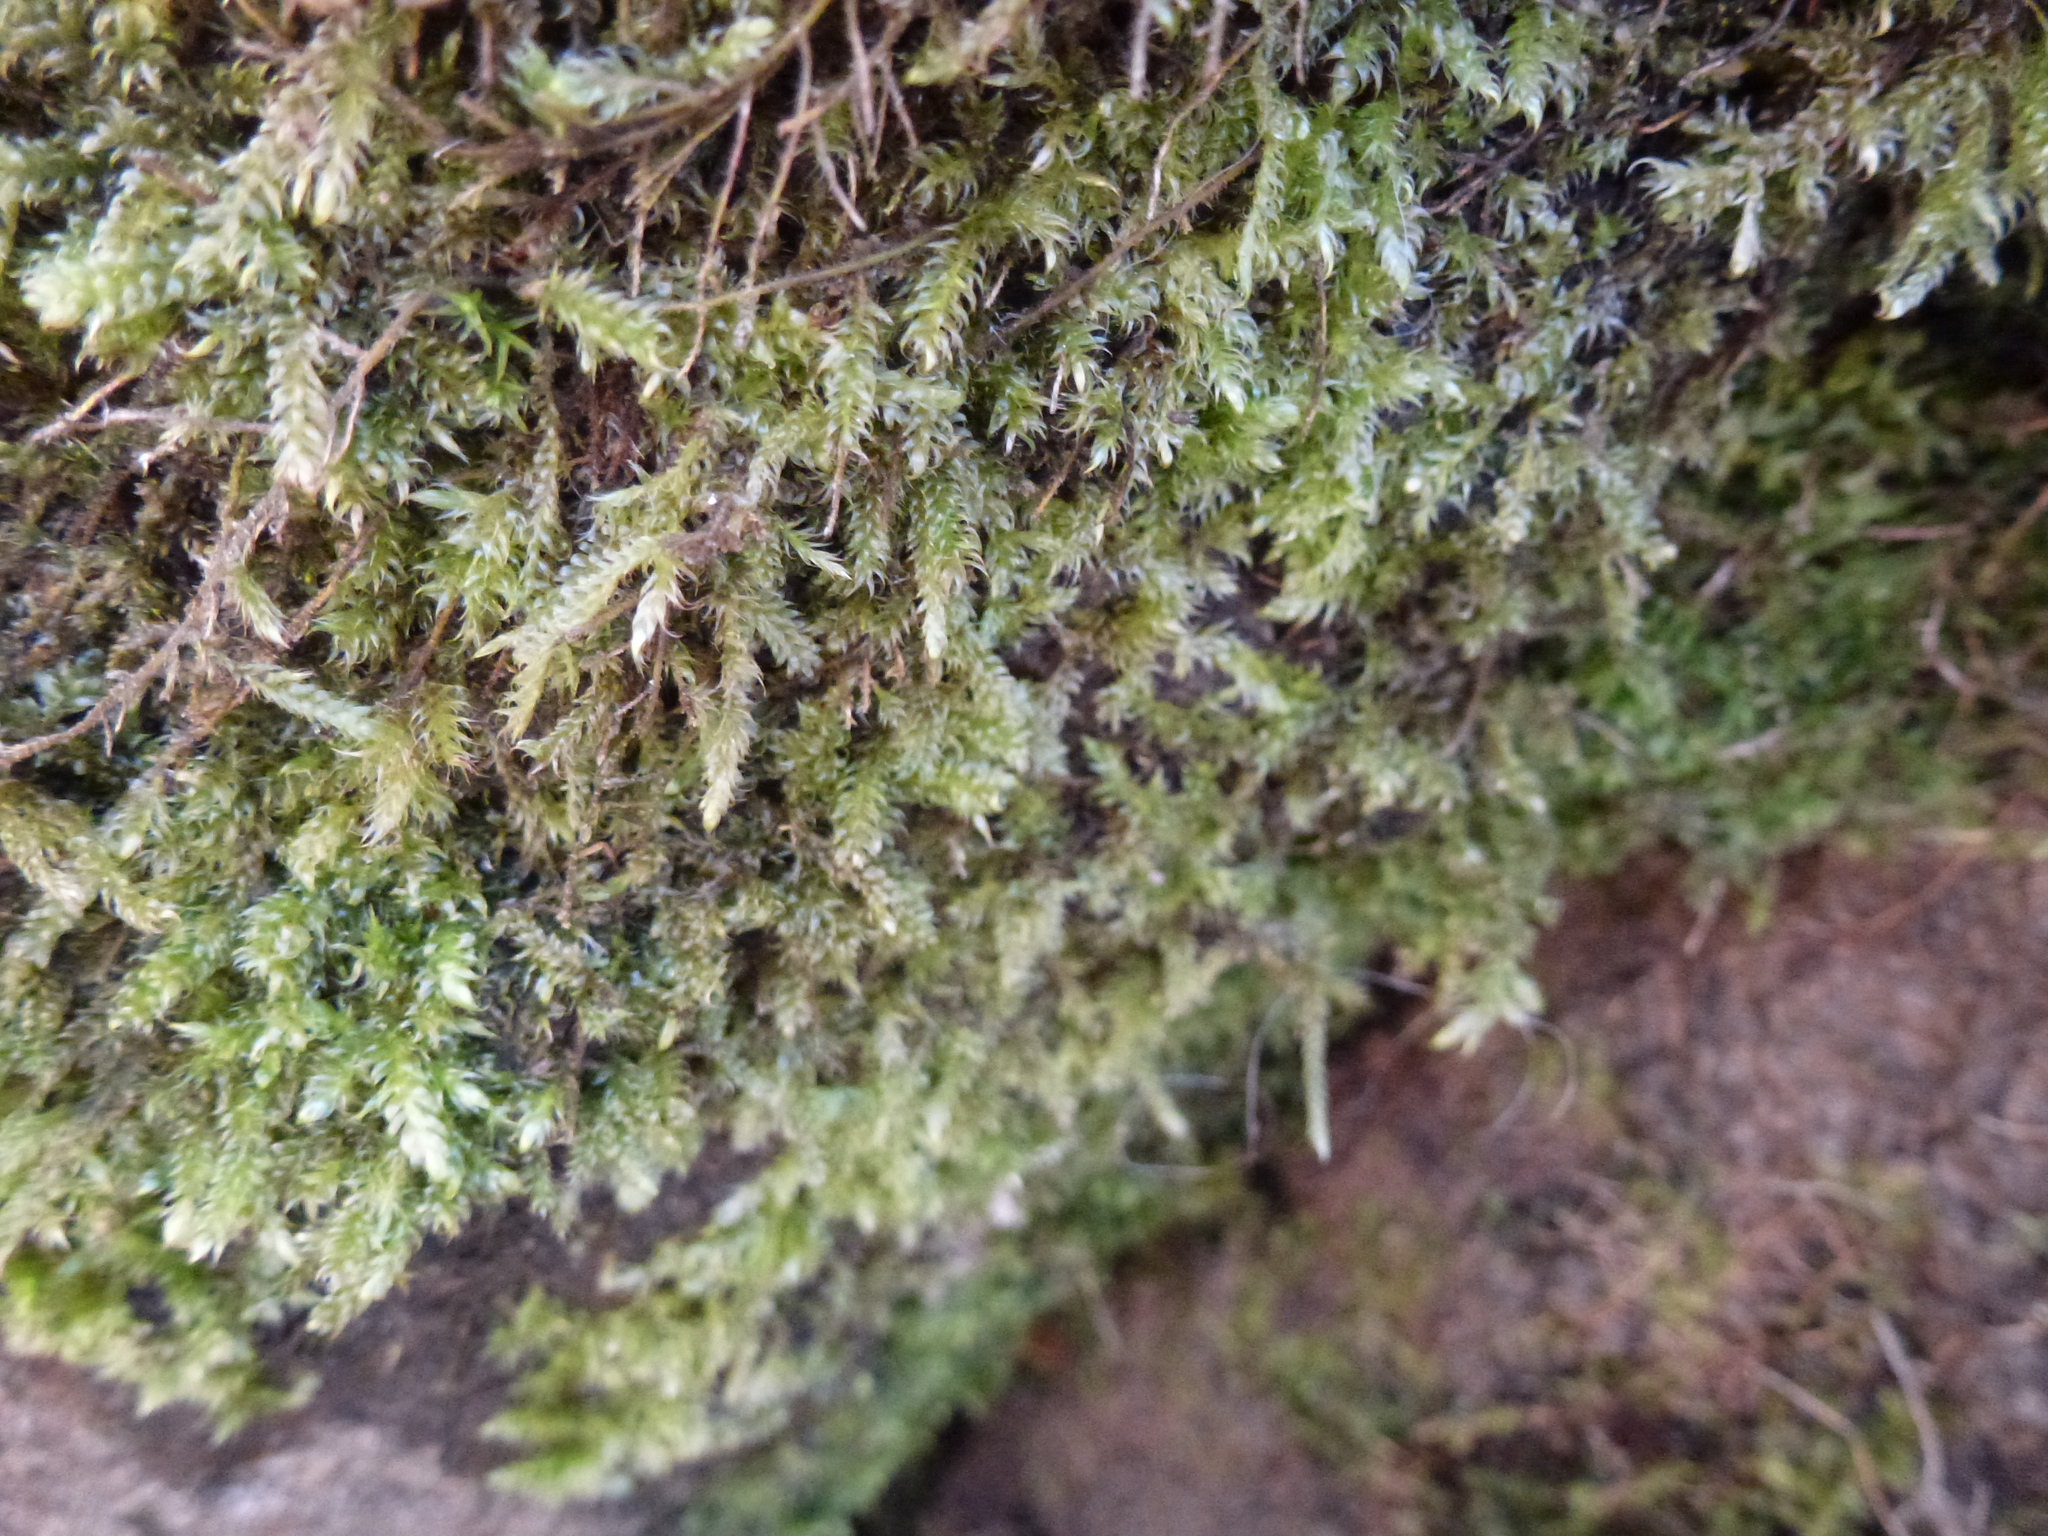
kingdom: Plantae
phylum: Bryophyta
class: Bryopsida
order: Hypnales
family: Hypnaceae
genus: Hypnum
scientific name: Hypnum cupressiforme
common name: Cypress-leaved plait-moss
